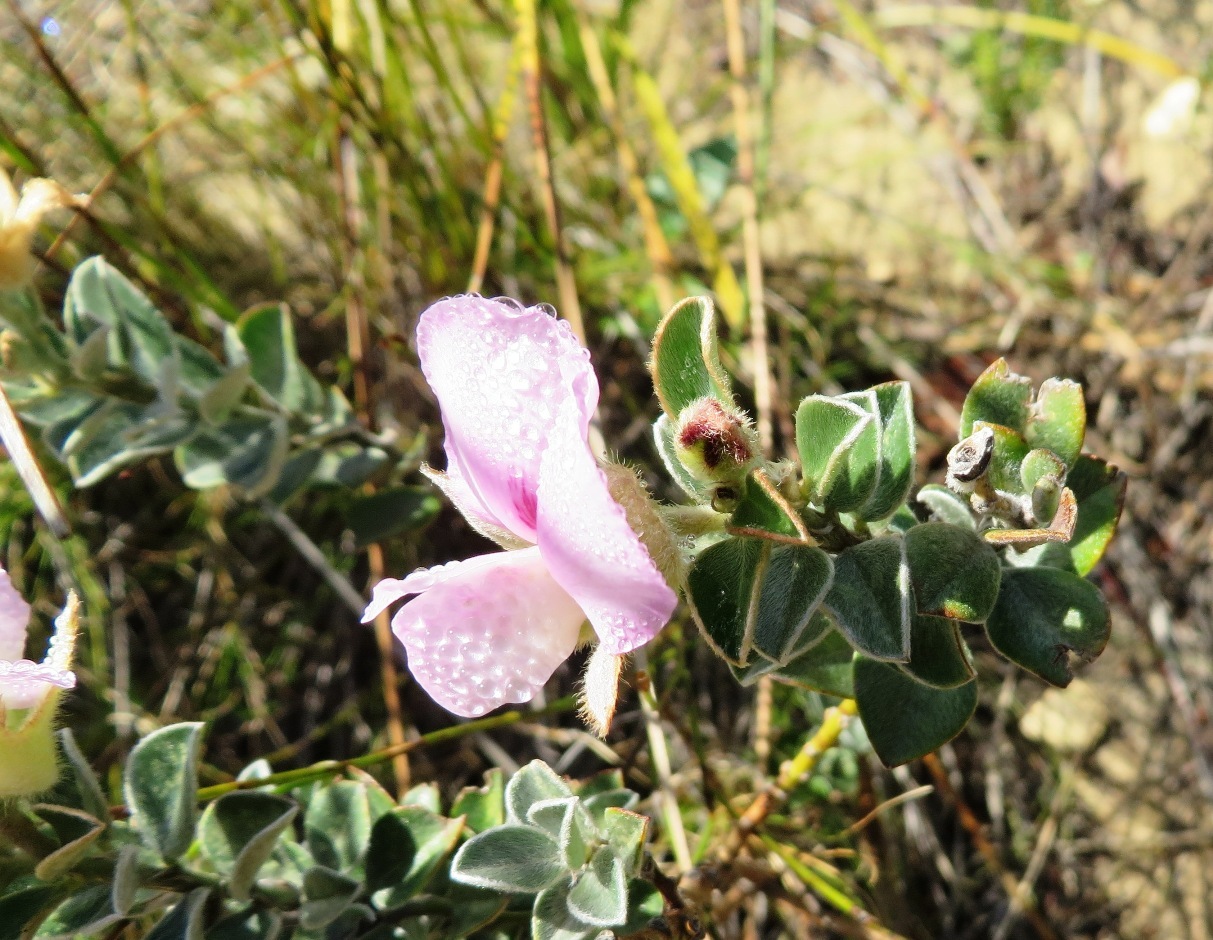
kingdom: Plantae
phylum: Tracheophyta
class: Magnoliopsida
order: Fabales
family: Fabaceae
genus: Podalyria
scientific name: Podalyria variabilis
